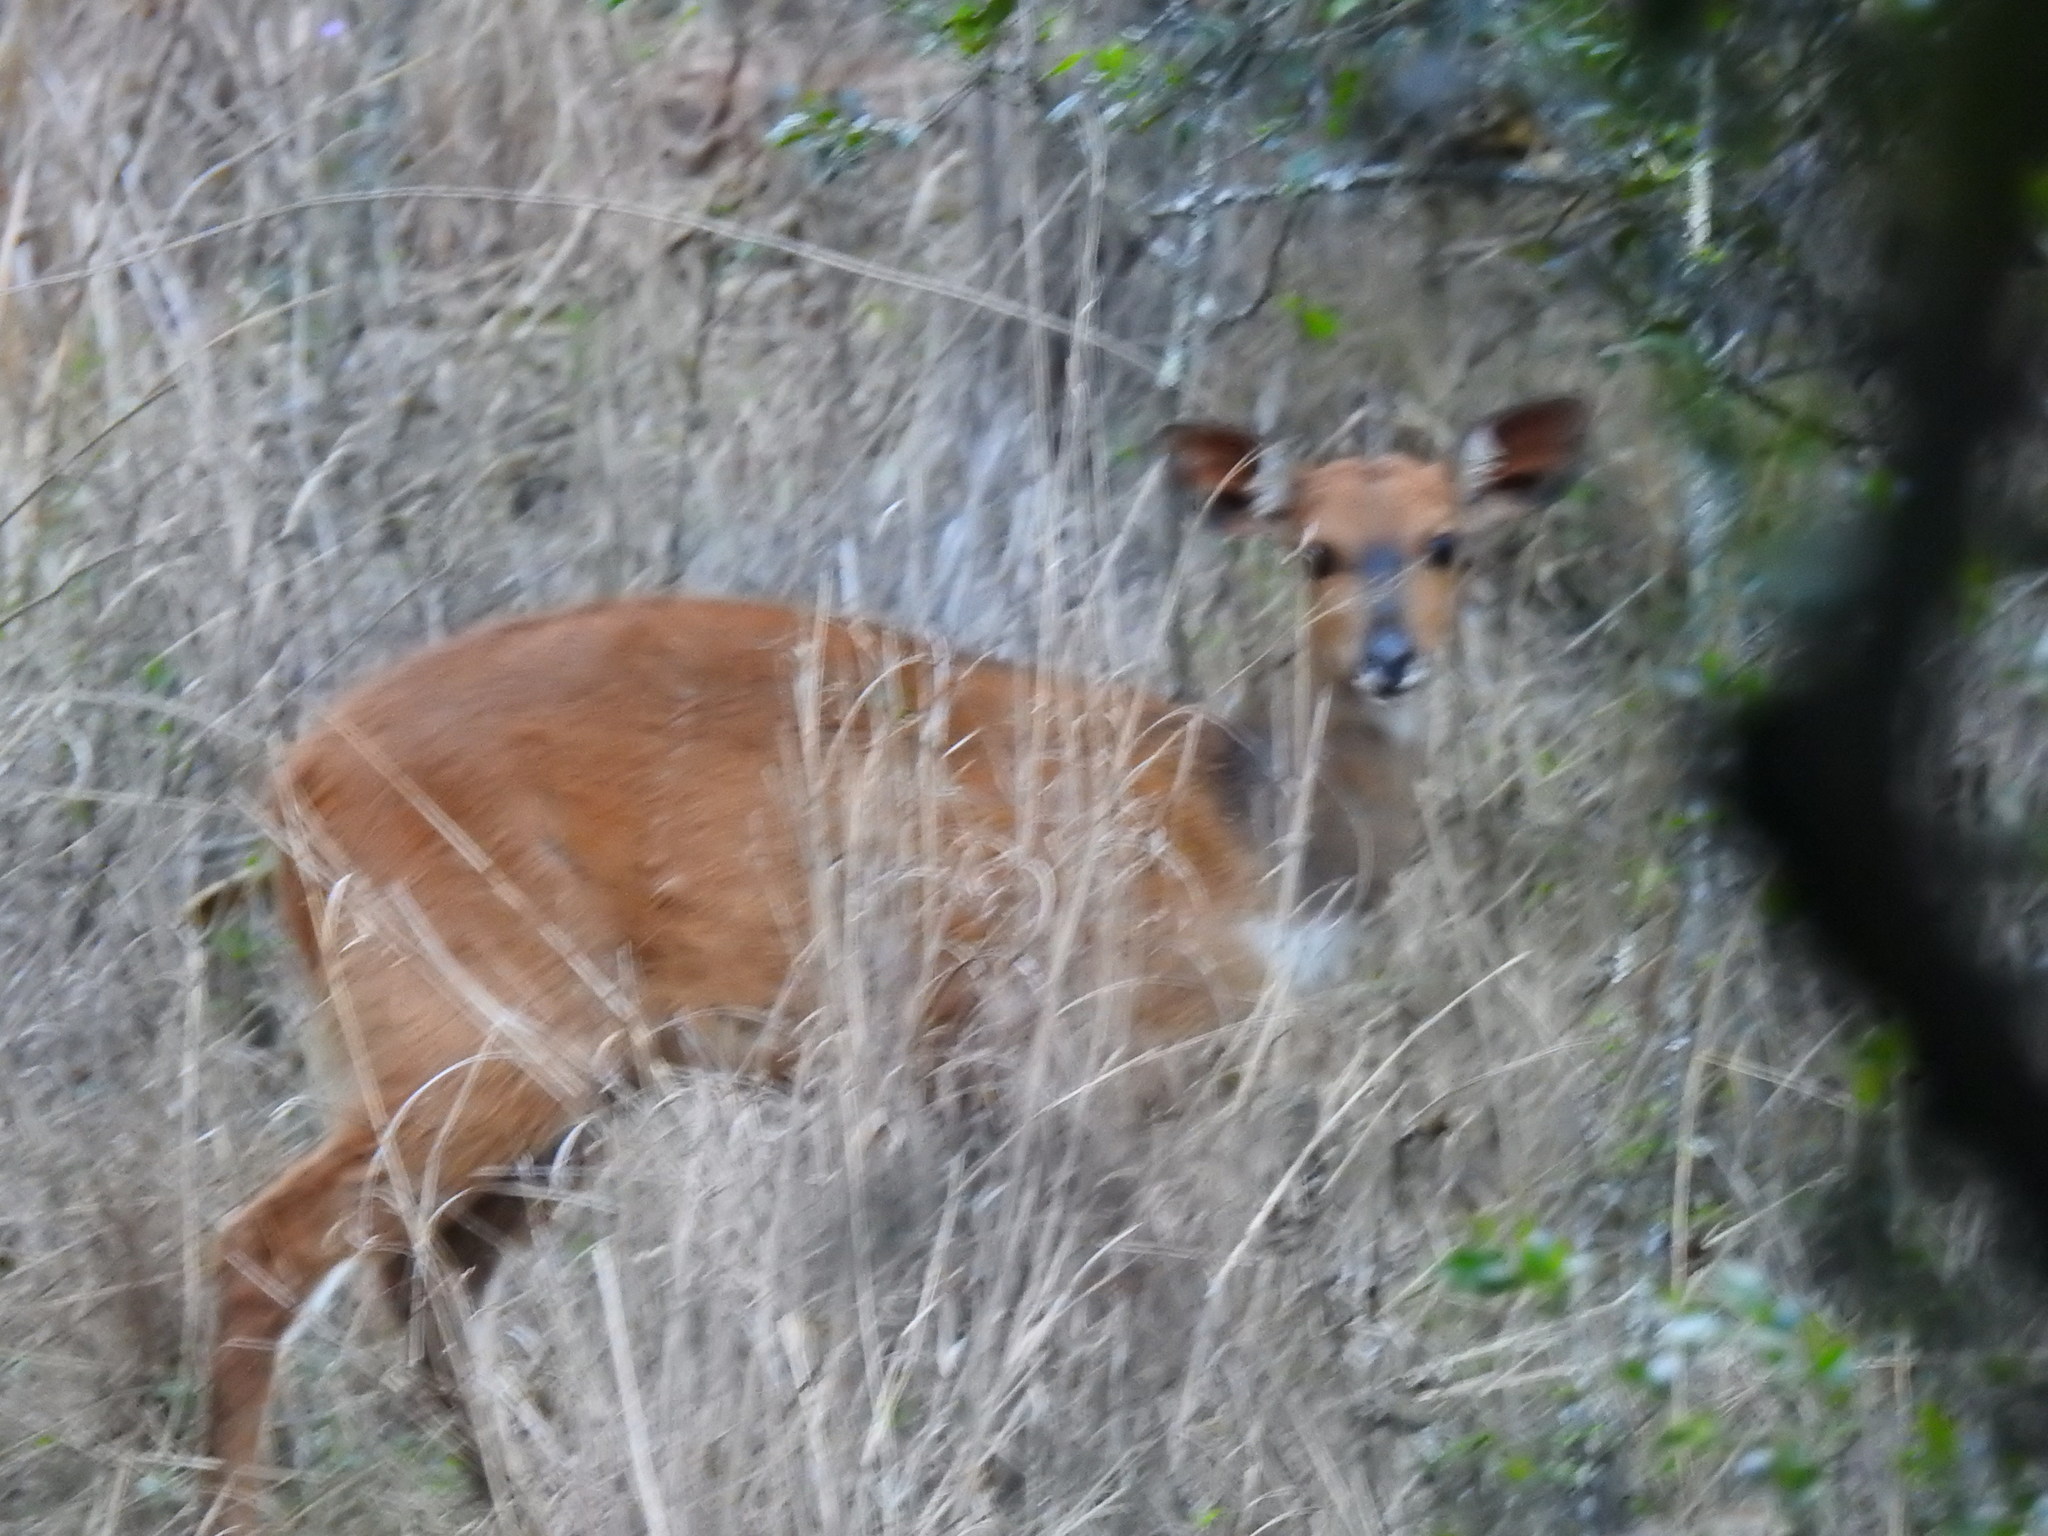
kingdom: Animalia
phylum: Chordata
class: Mammalia
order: Artiodactyla
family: Bovidae
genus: Tragelaphus
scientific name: Tragelaphus scriptus
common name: Bushbuck
